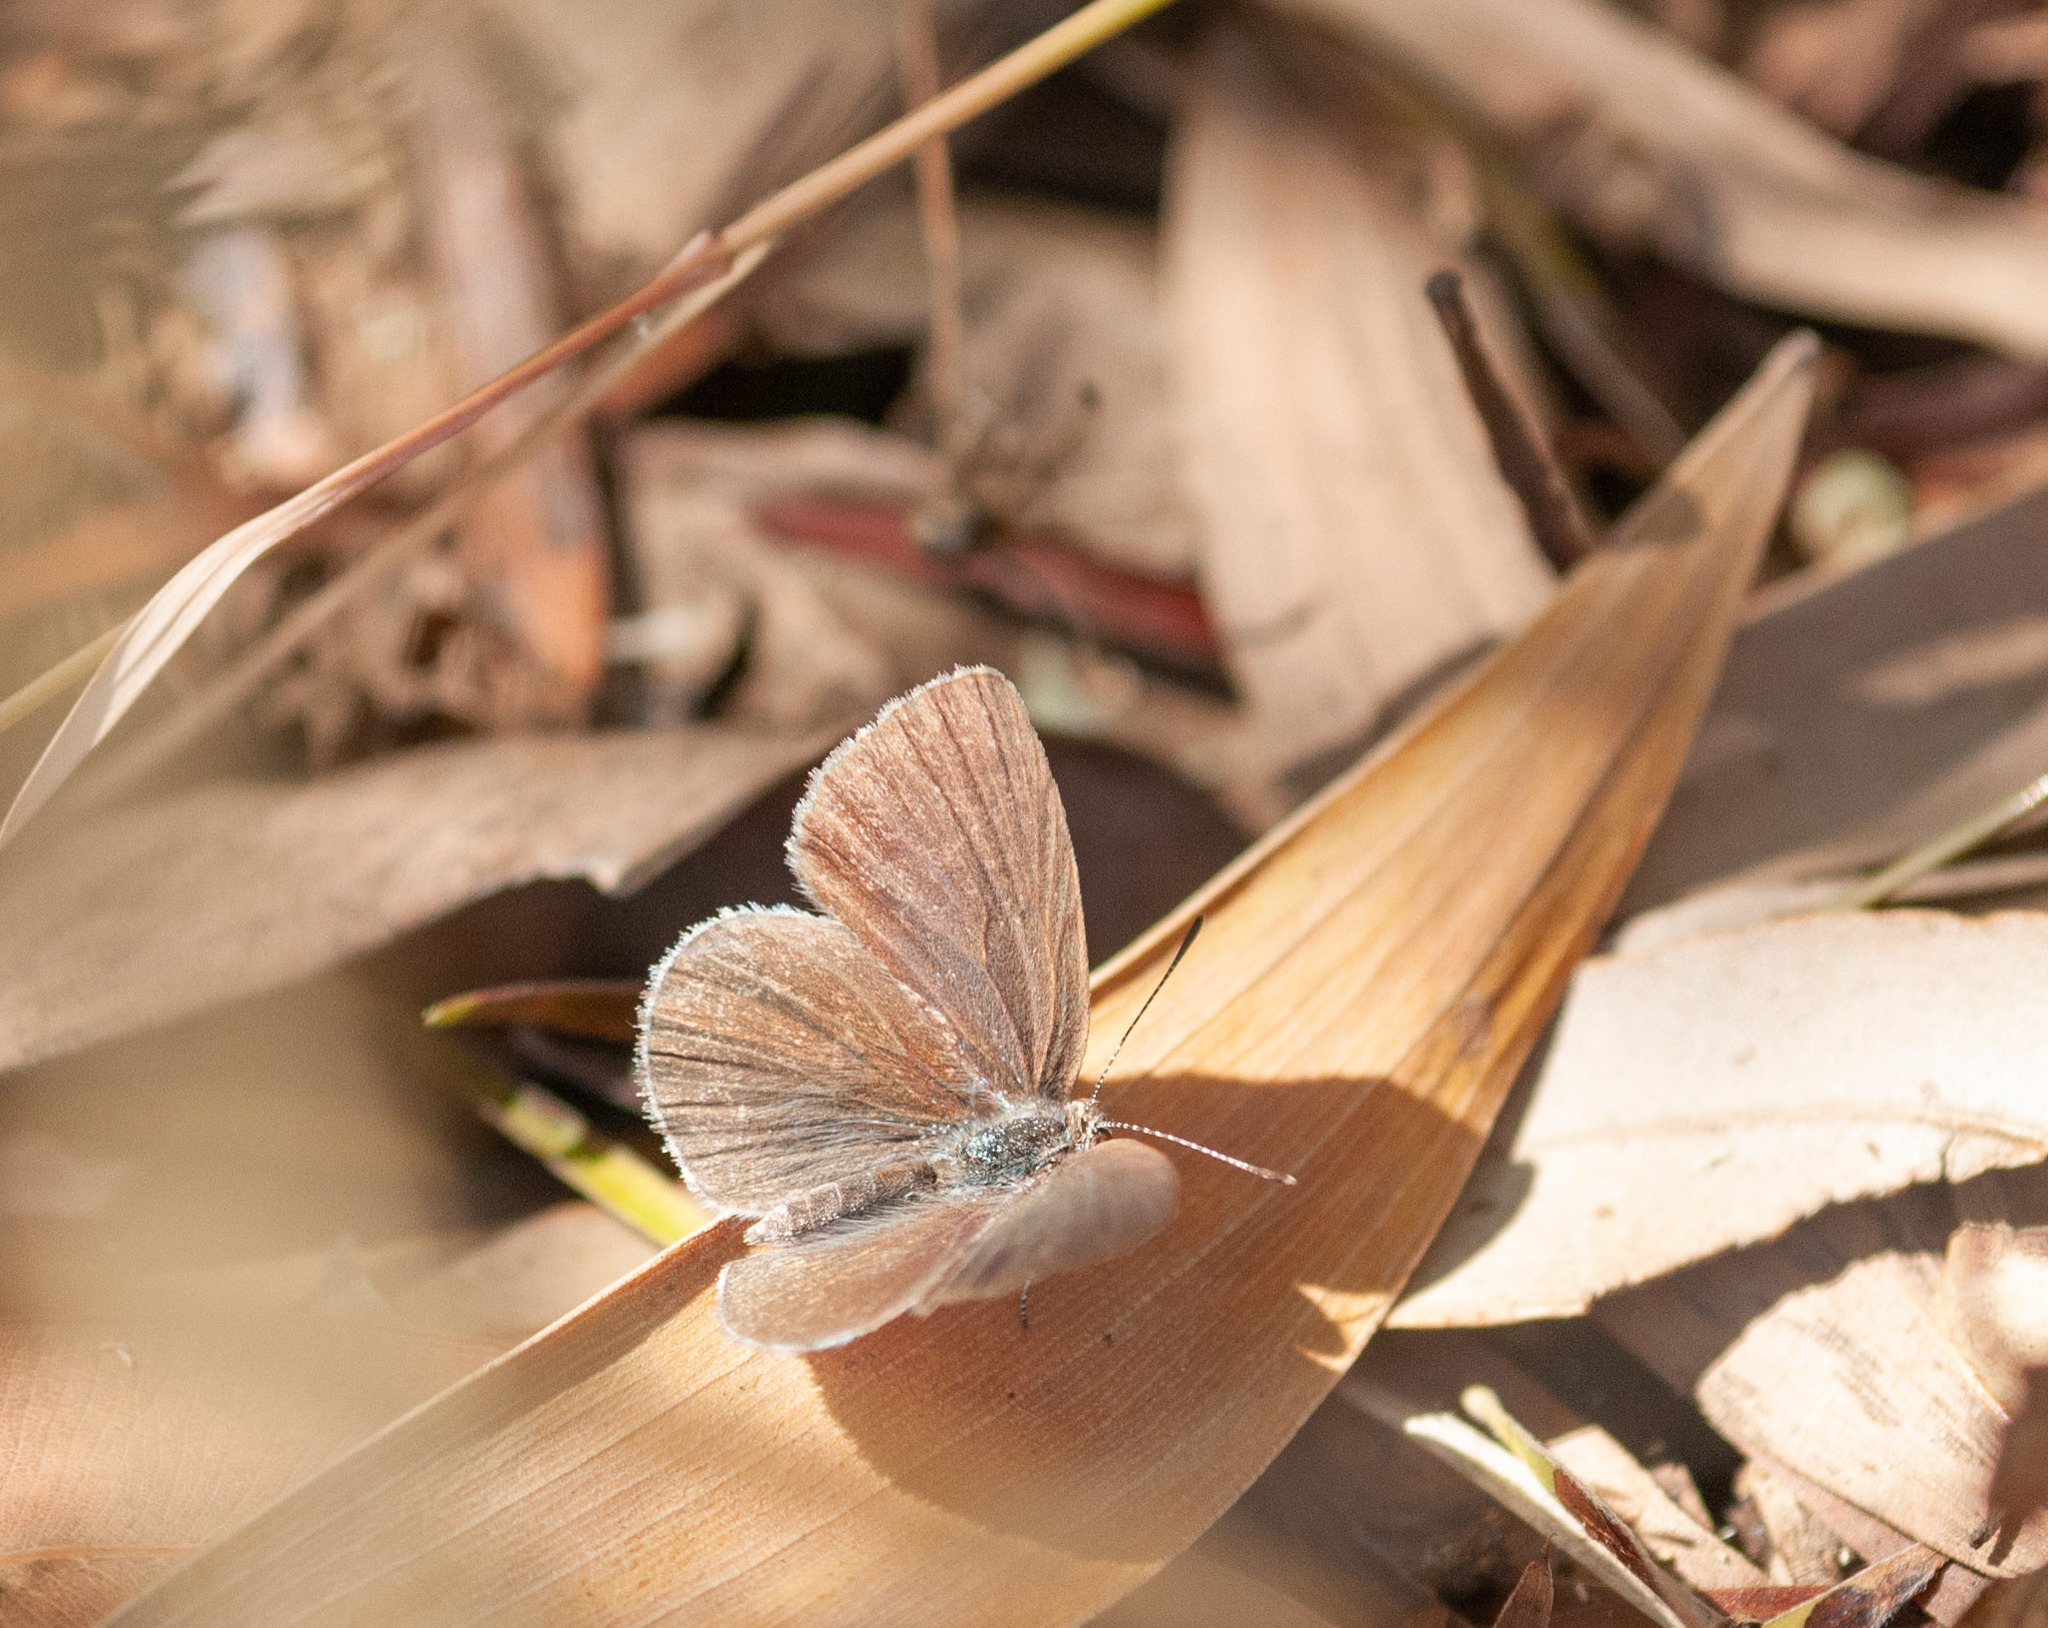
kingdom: Animalia
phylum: Arthropoda
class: Insecta
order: Lepidoptera
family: Lycaenidae
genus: Candalides
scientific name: Candalides
